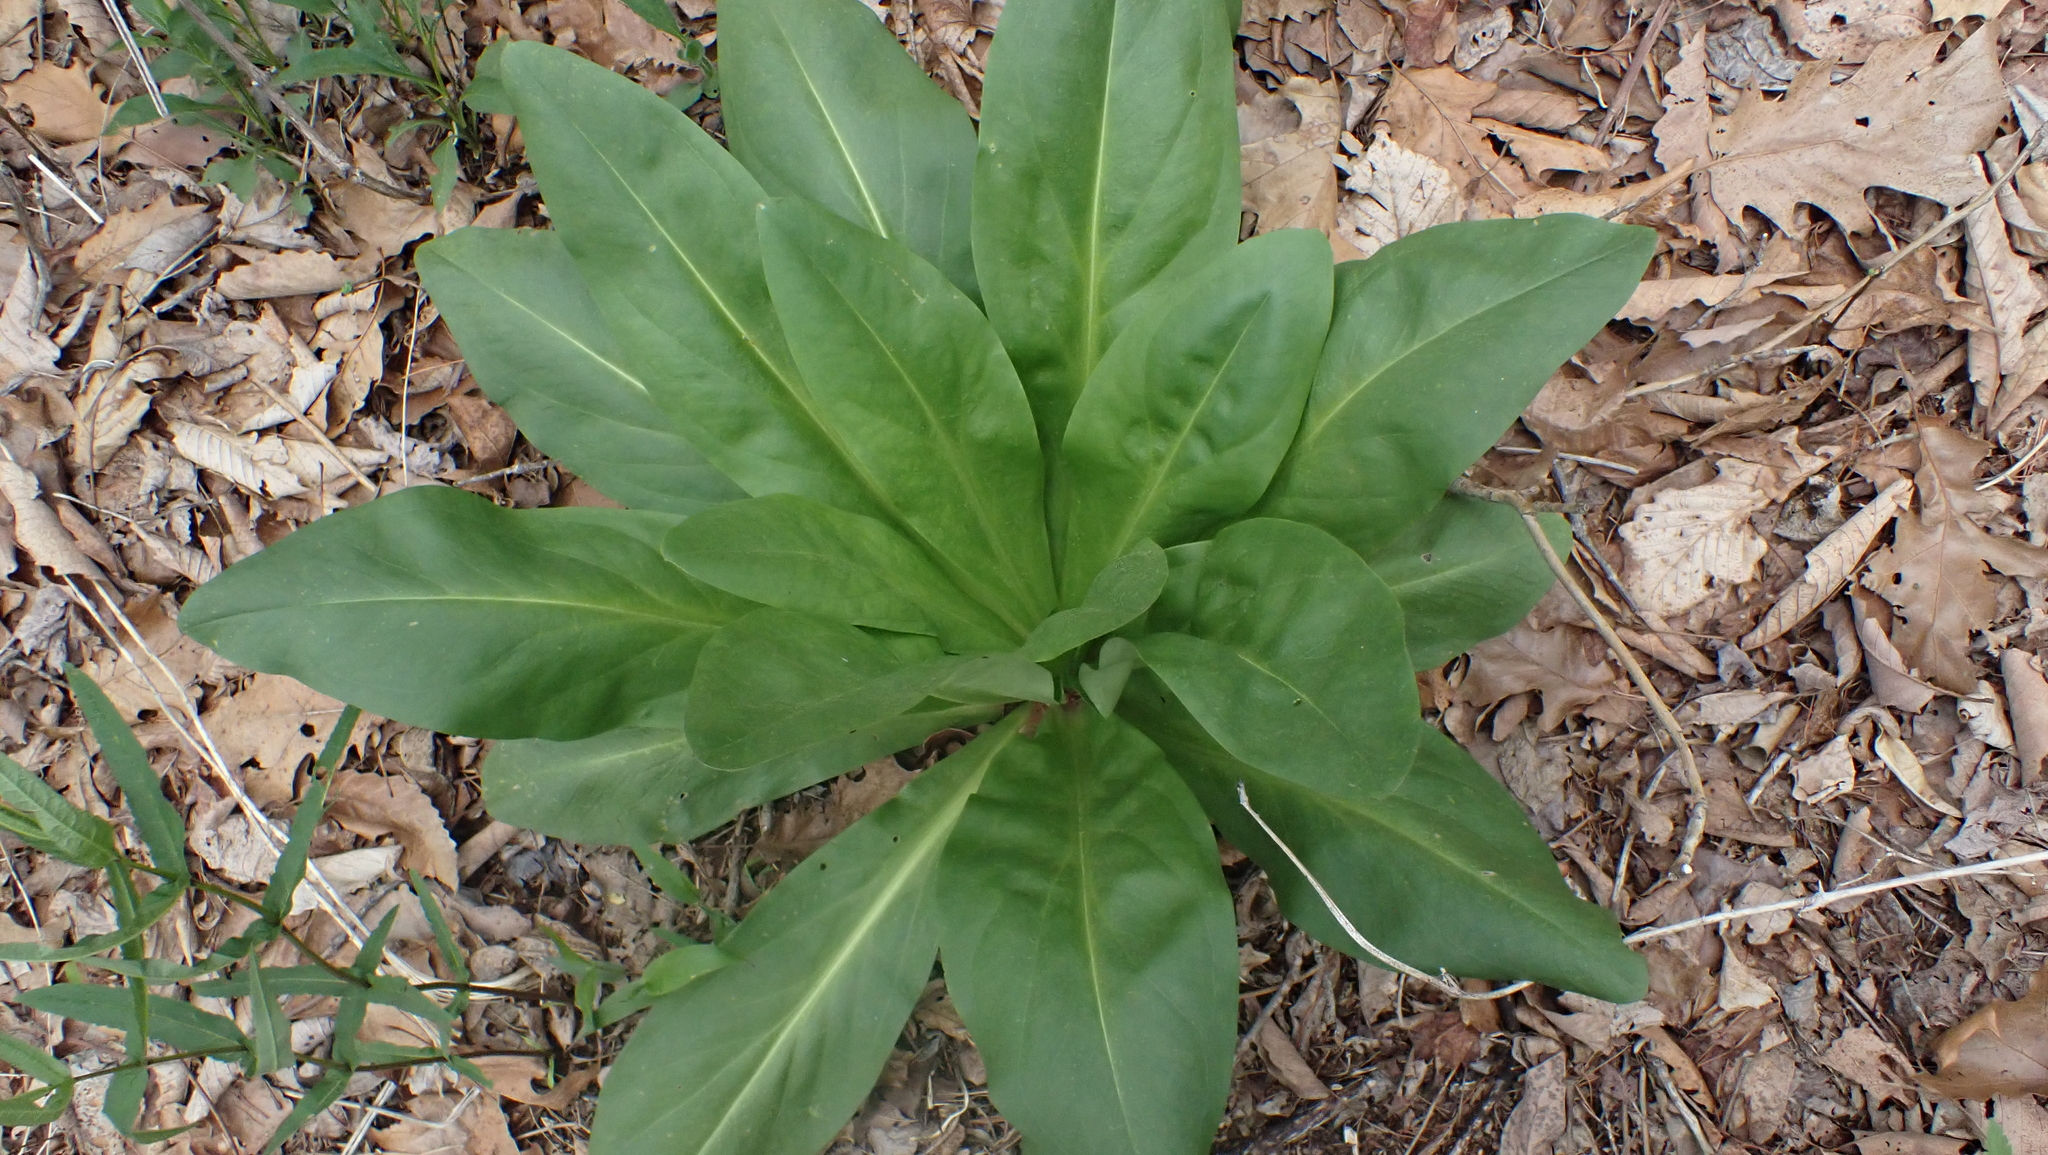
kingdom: Plantae
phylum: Tracheophyta
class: Magnoliopsida
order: Gentianales
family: Gentianaceae
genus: Frasera
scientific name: Frasera caroliniensis
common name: American columbo
